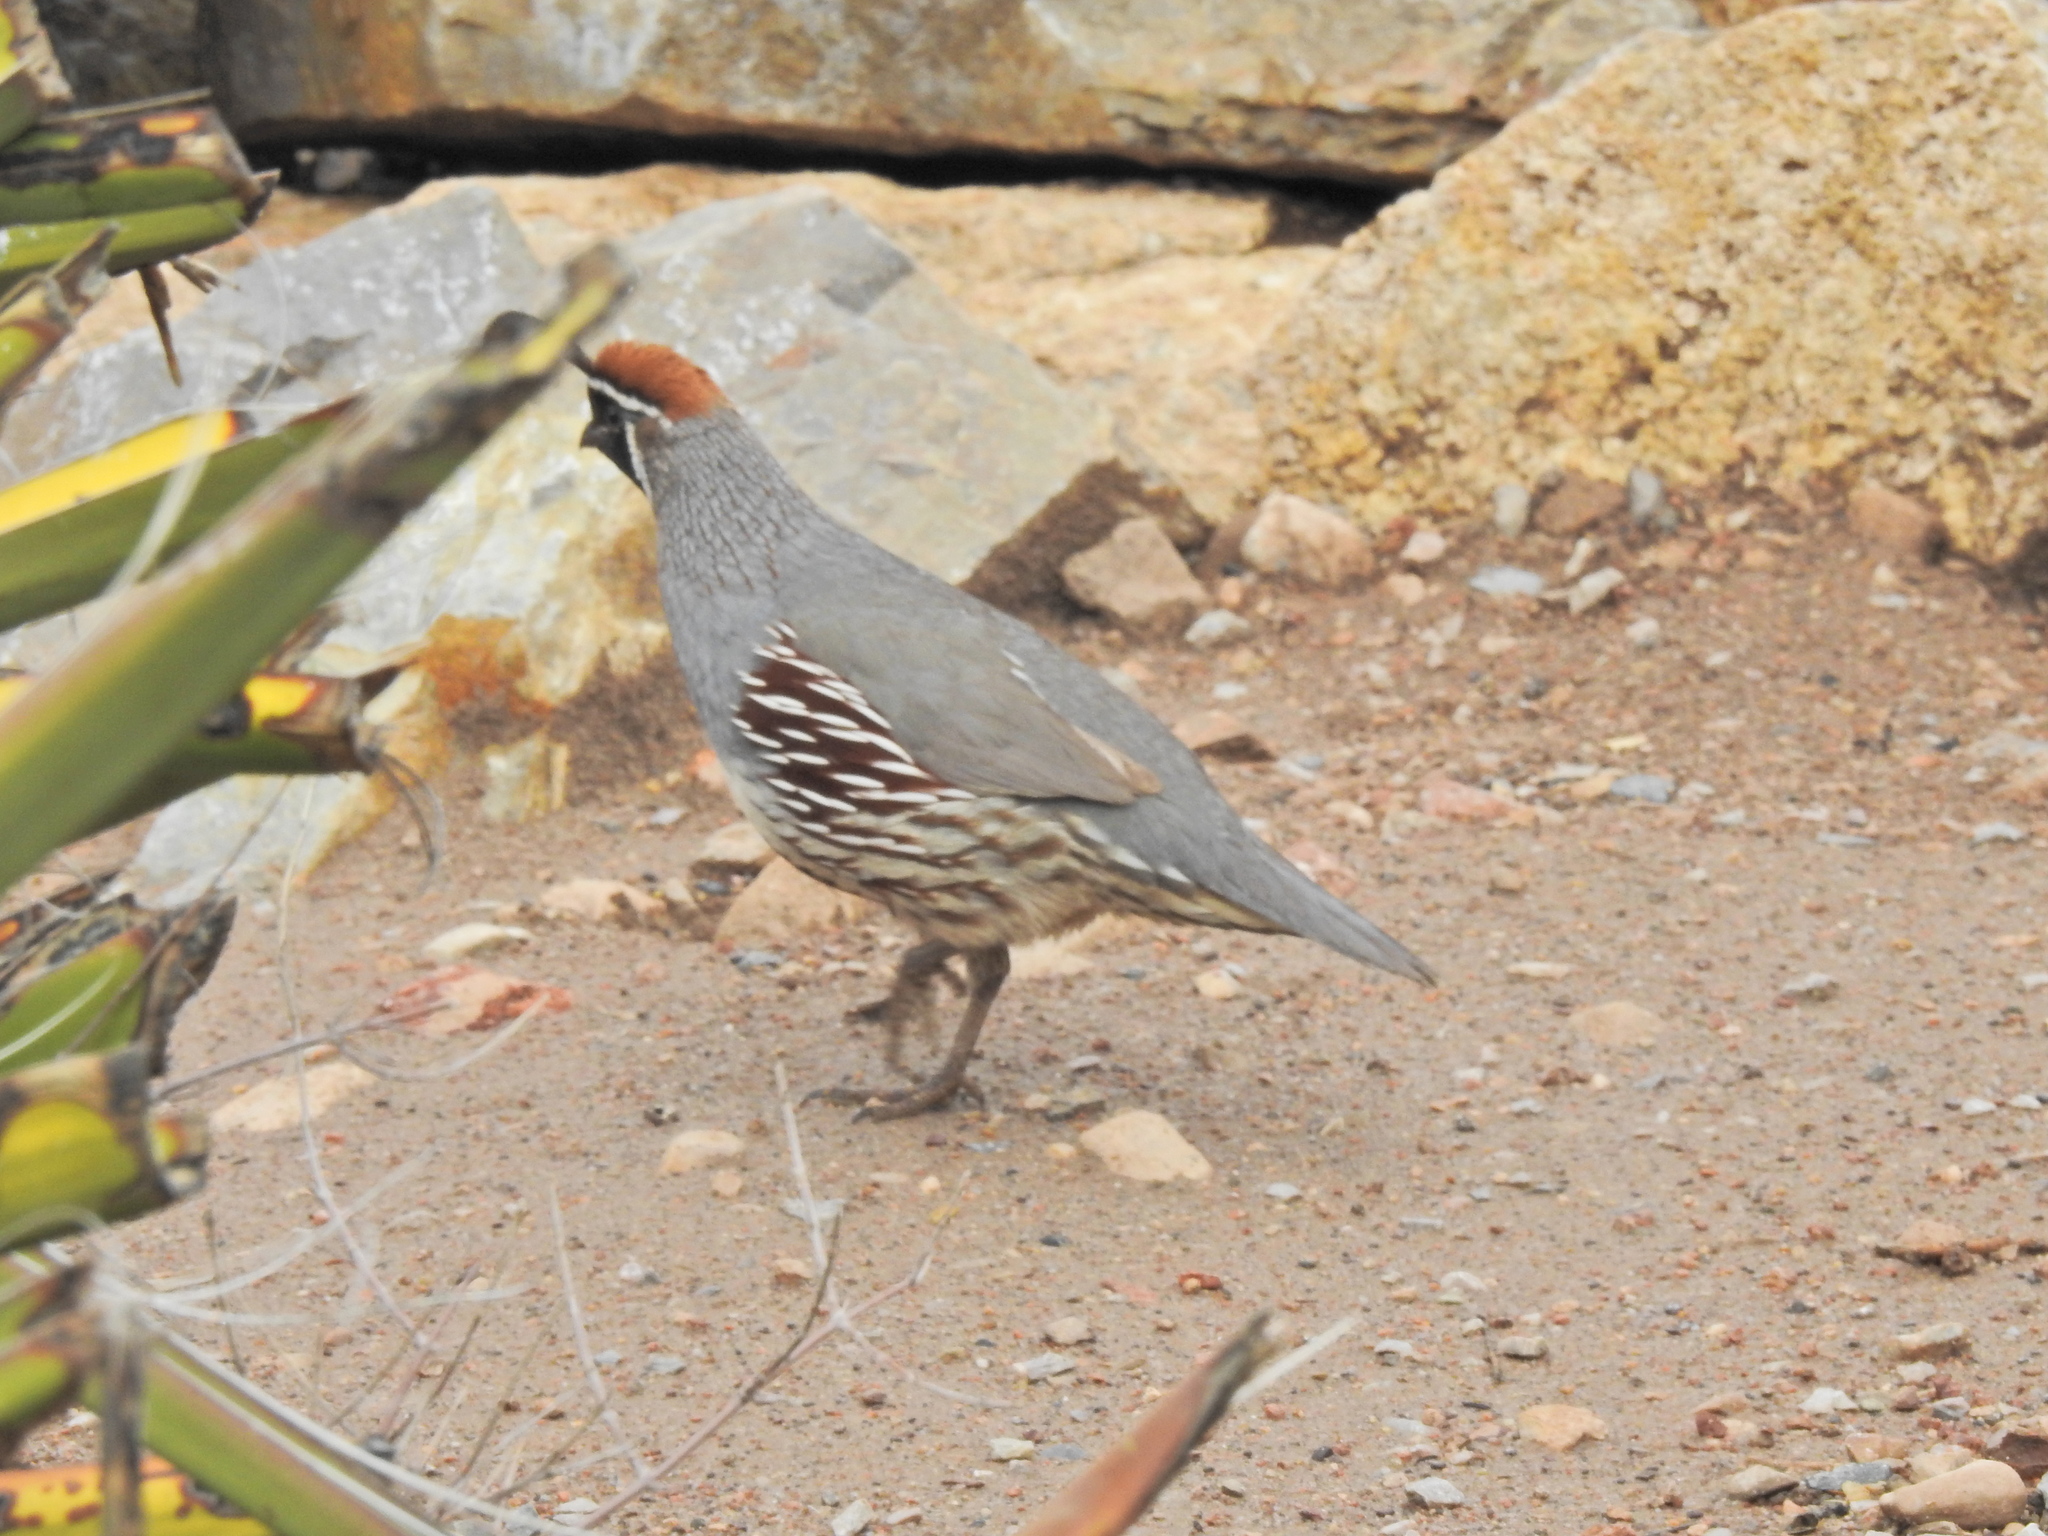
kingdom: Animalia
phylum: Chordata
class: Aves
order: Galliformes
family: Odontophoridae
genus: Callipepla
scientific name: Callipepla gambelii
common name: Gambel's quail
